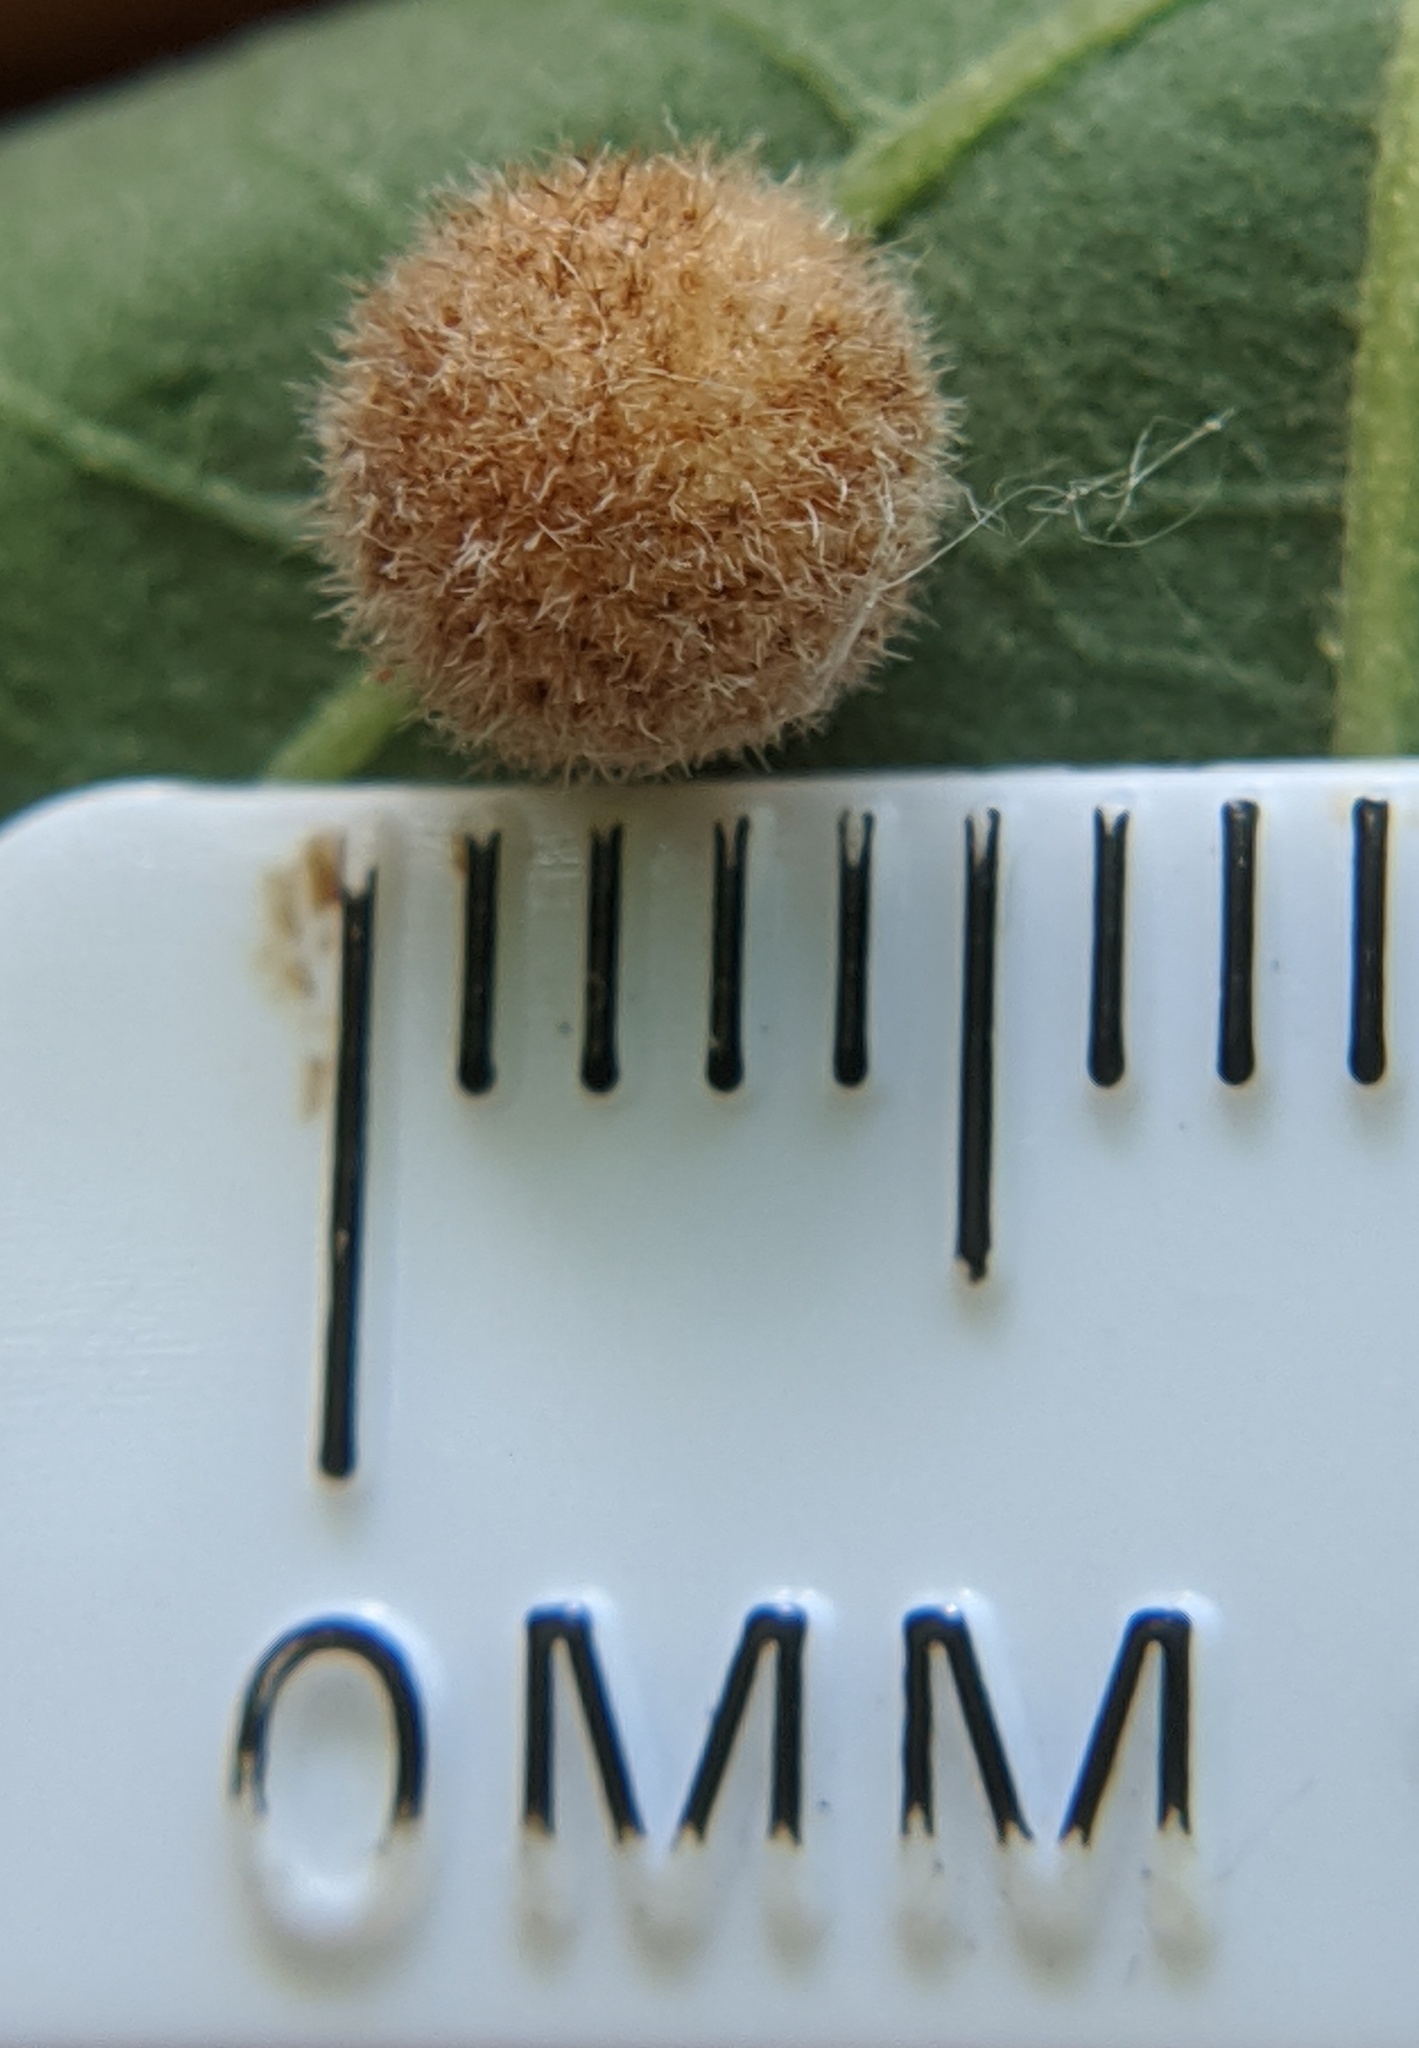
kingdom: Animalia
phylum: Arthropoda
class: Insecta
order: Hymenoptera
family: Cynipidae
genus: Philonix
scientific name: Philonix fulvicollis
